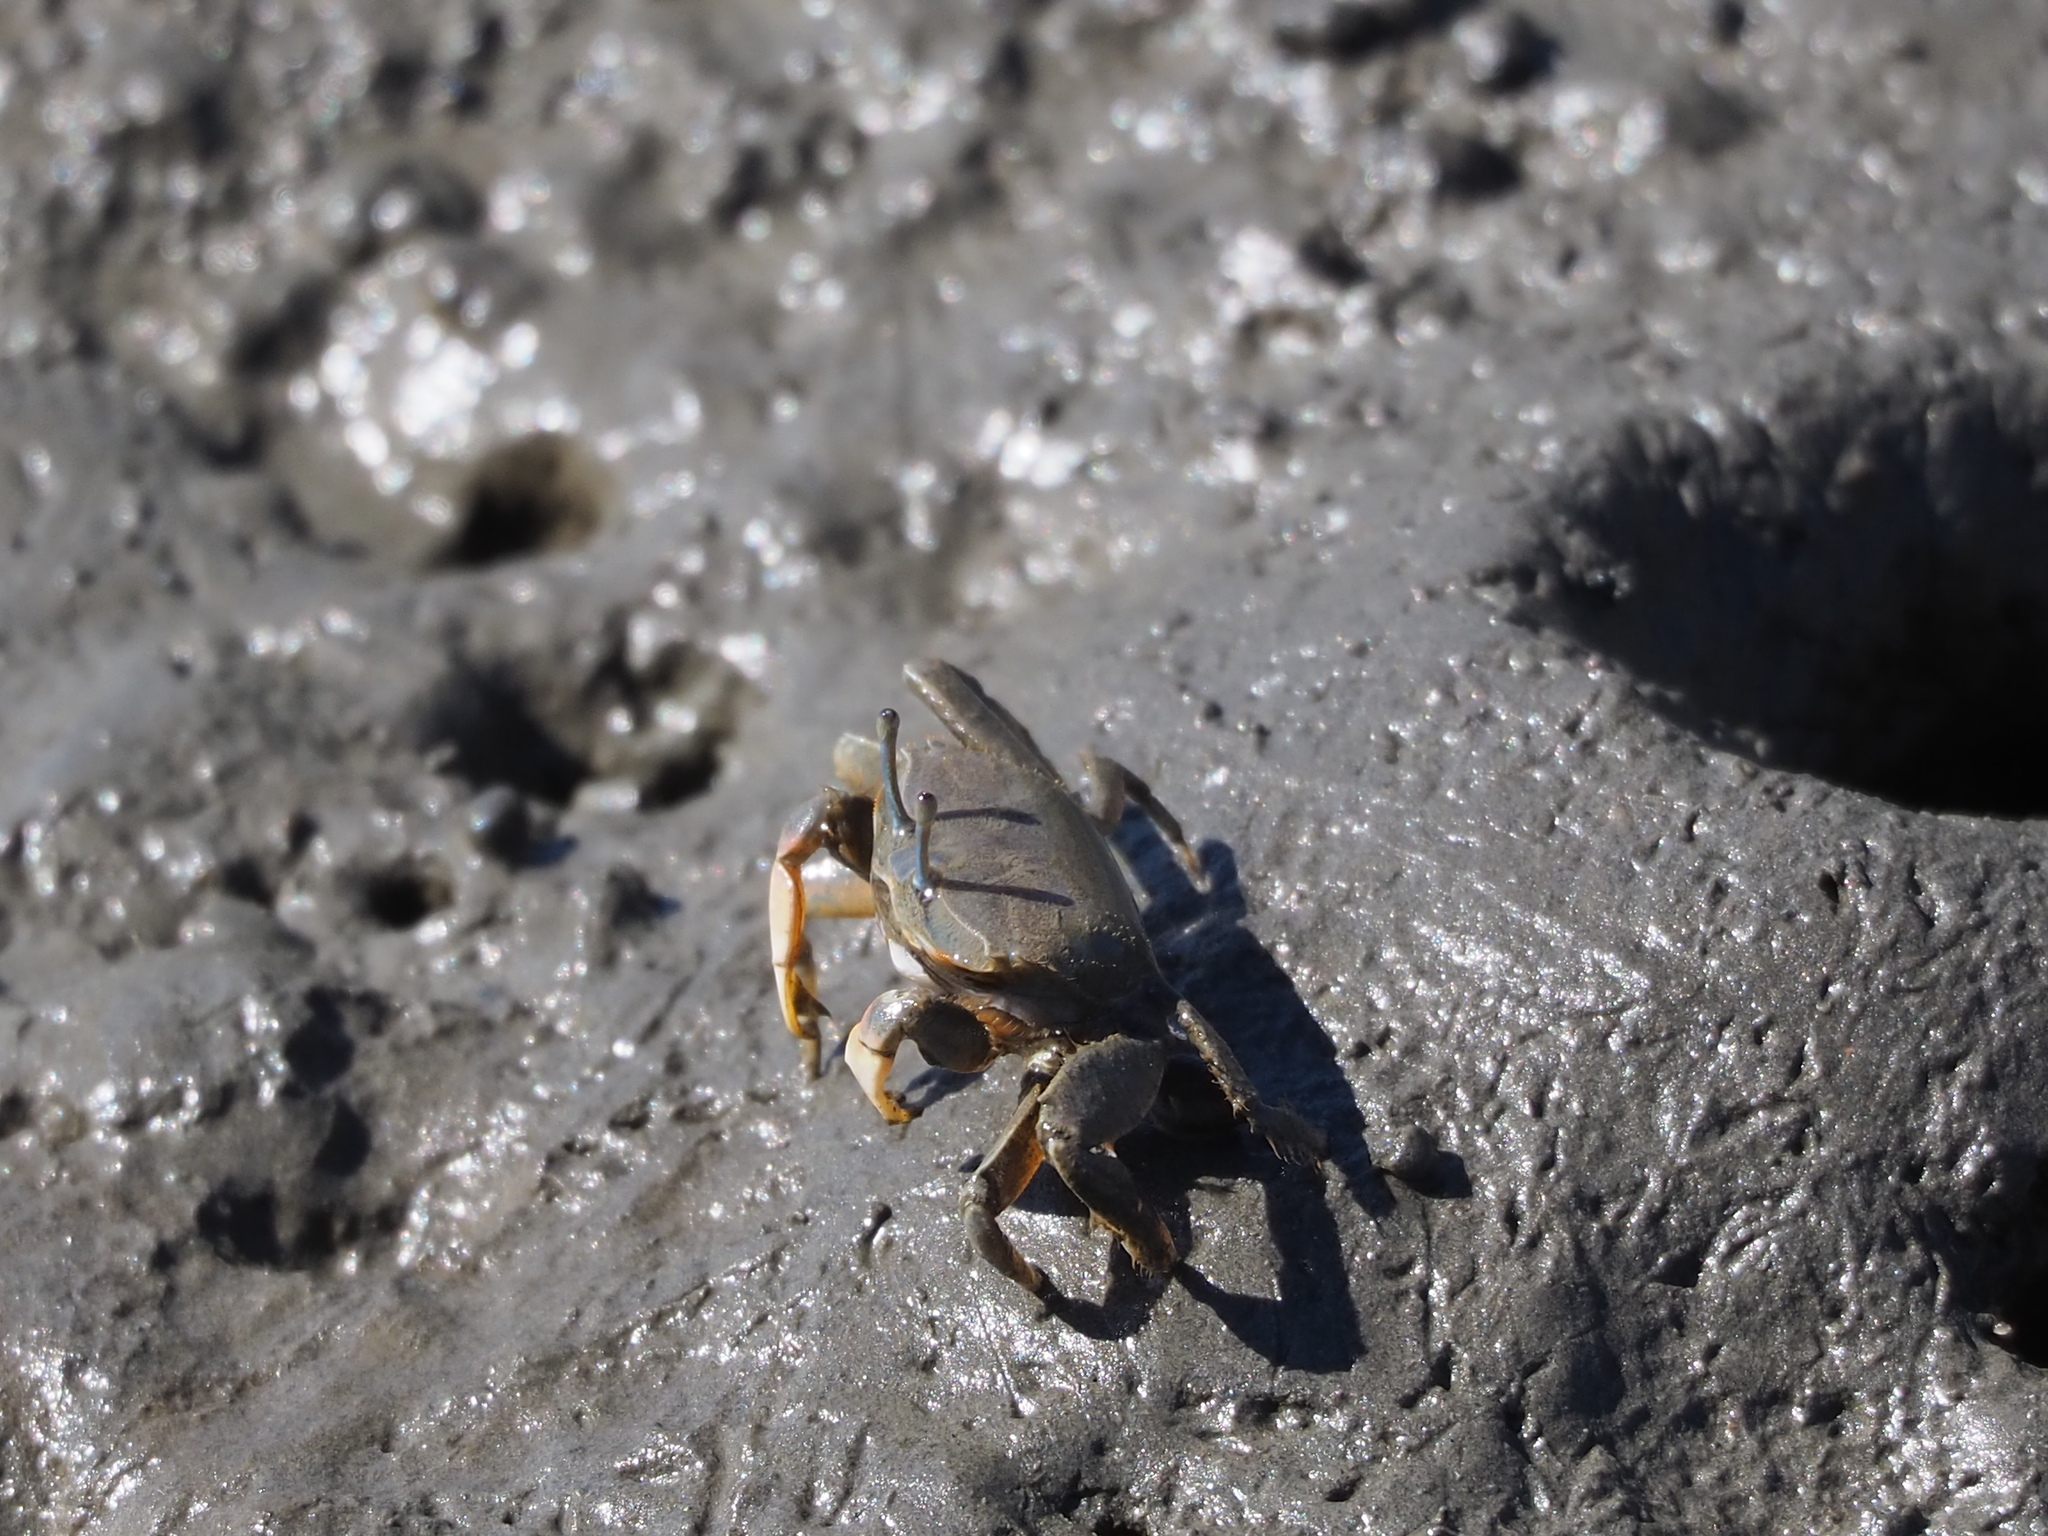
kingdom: Animalia
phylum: Arthropoda
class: Malacostraca
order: Decapoda
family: Macrophthalmidae
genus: Macrophthalmus
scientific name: Macrophthalmus banzai
